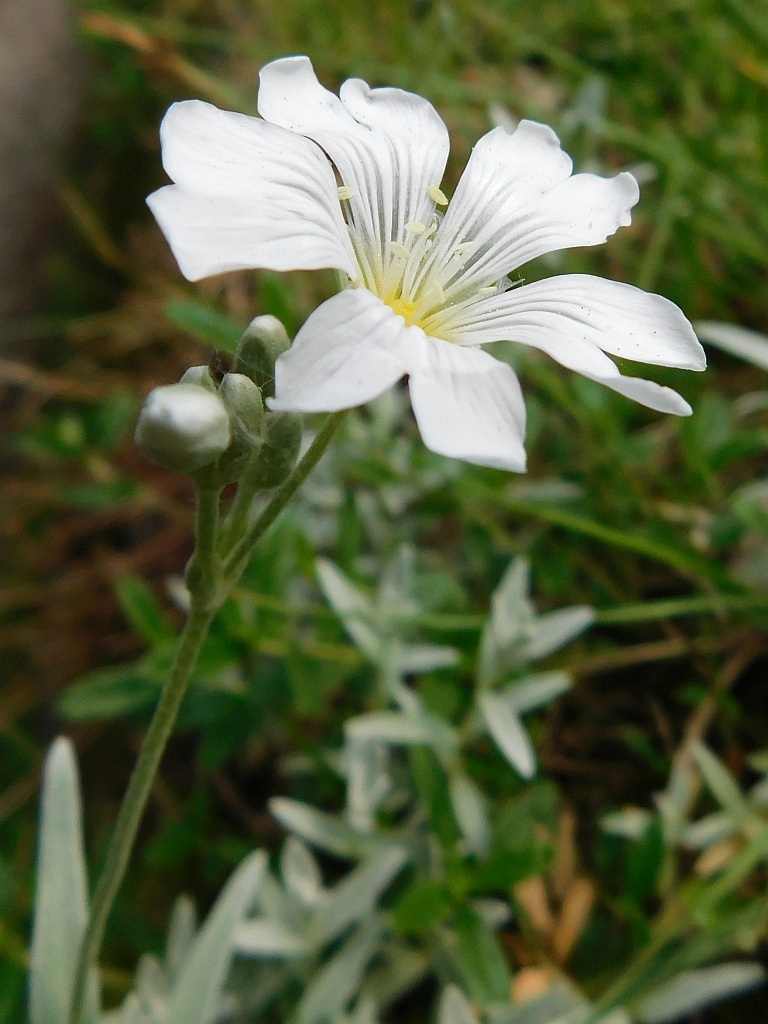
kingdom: Plantae
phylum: Tracheophyta
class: Magnoliopsida
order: Caryophyllales
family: Caryophyllaceae
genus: Cerastium
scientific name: Cerastium tomentosum
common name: Snow-in-summer
